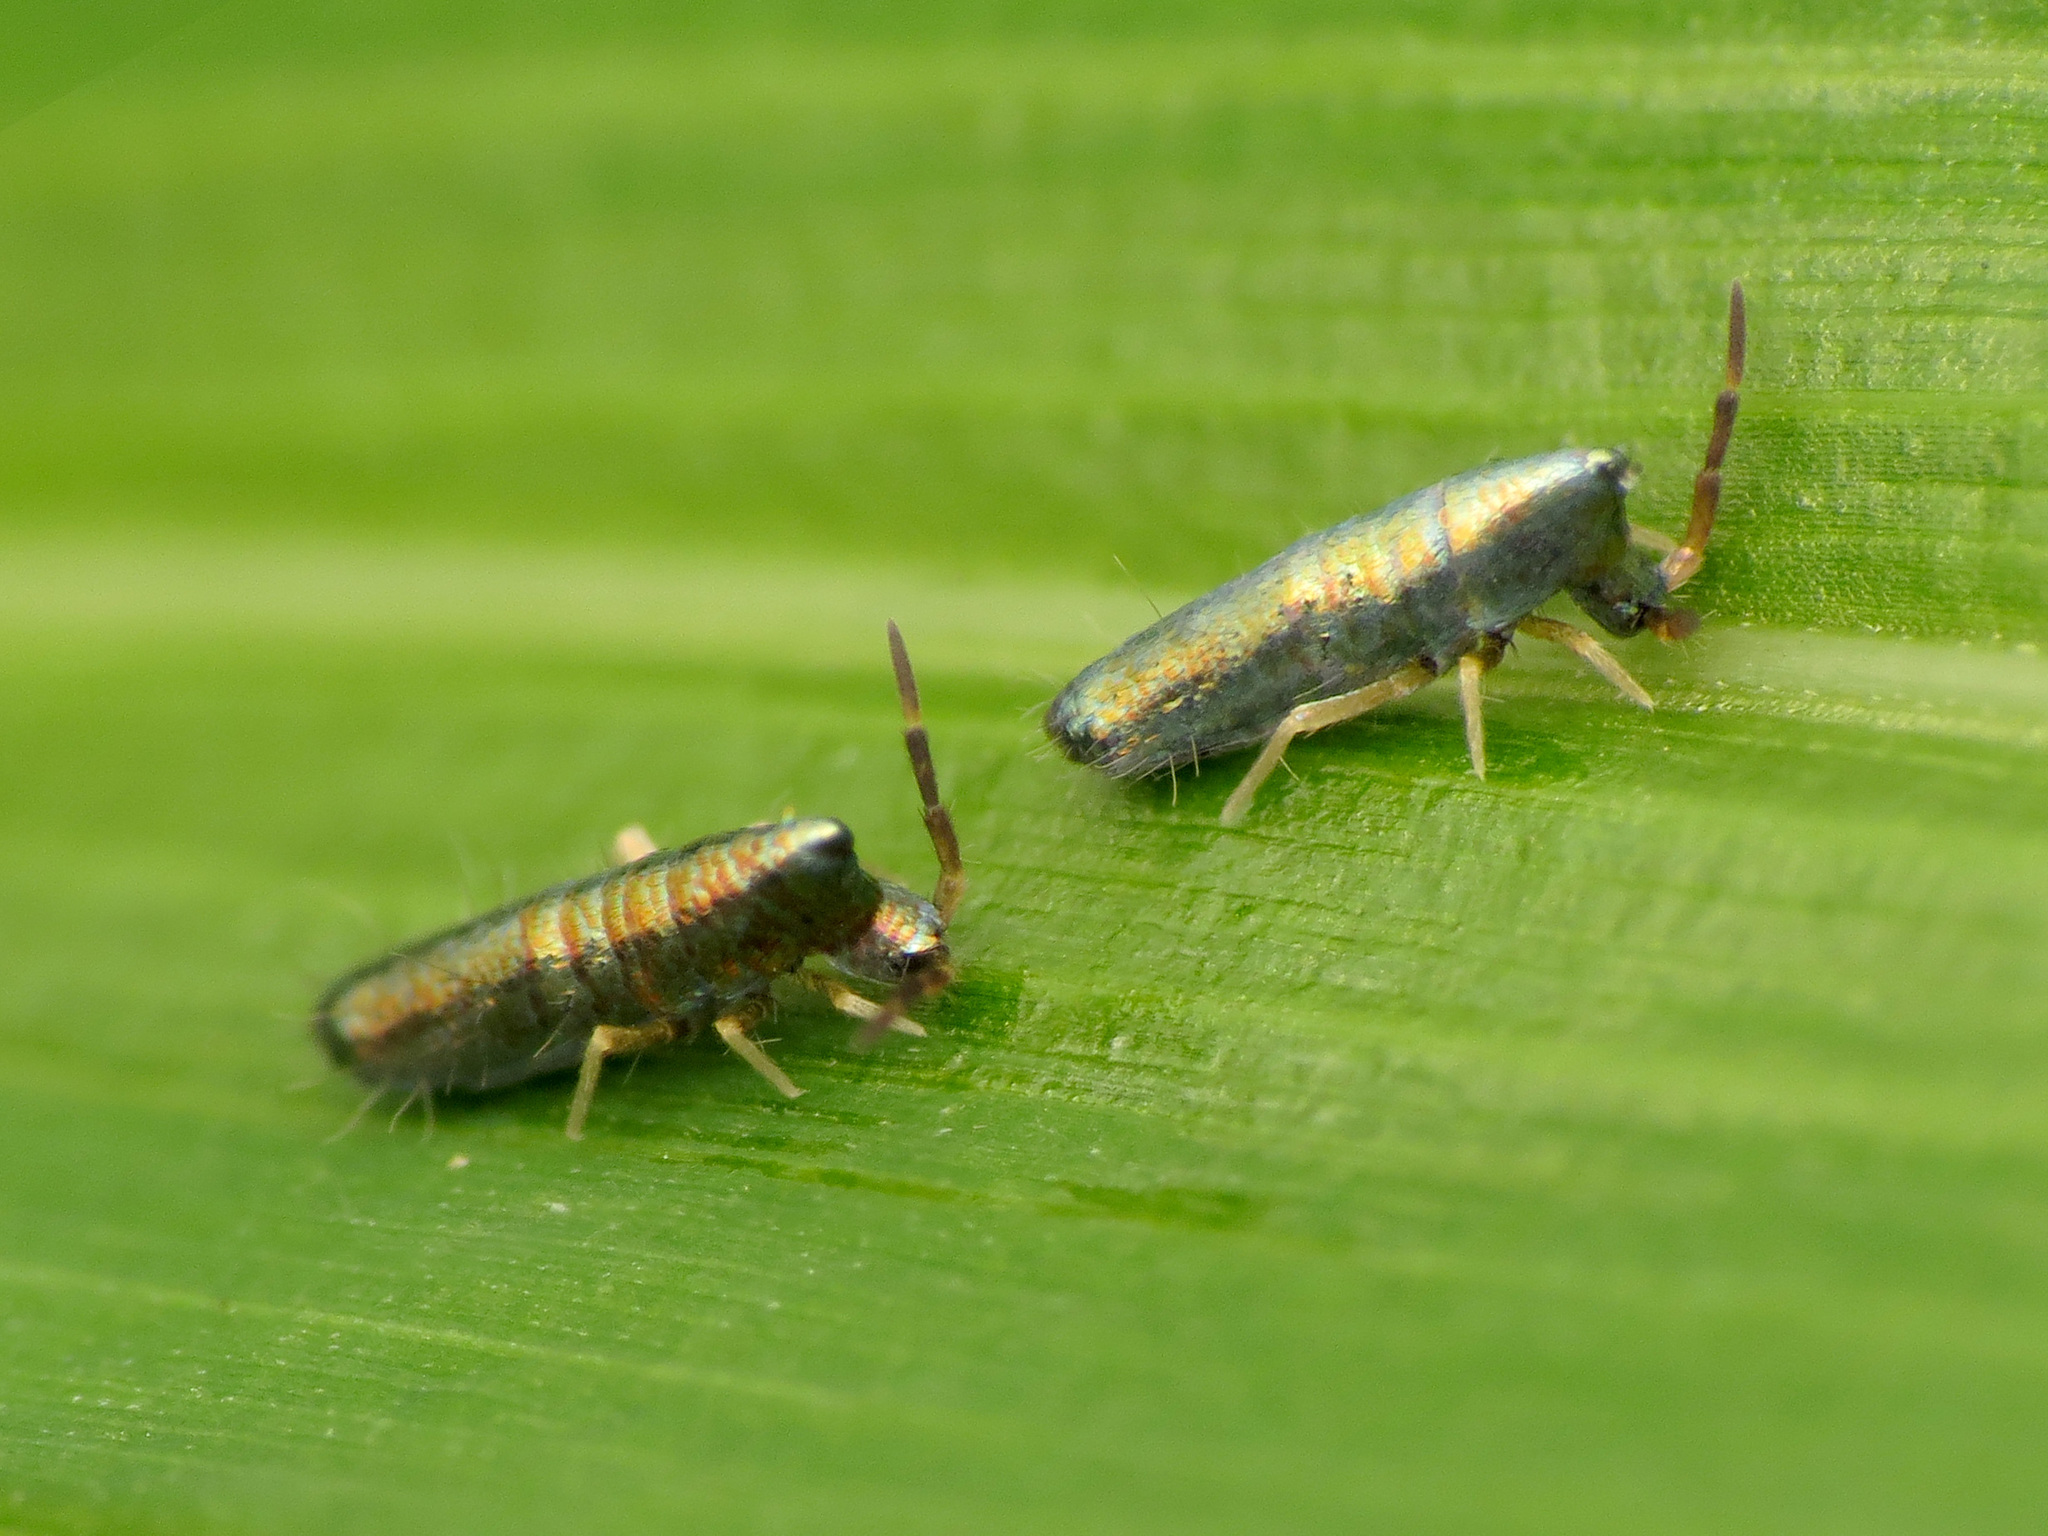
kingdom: Animalia
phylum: Arthropoda
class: Collembola
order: Entomobryomorpha
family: Entomobryidae
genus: Lepidocyrtus
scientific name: Lepidocyrtus paradoxus
